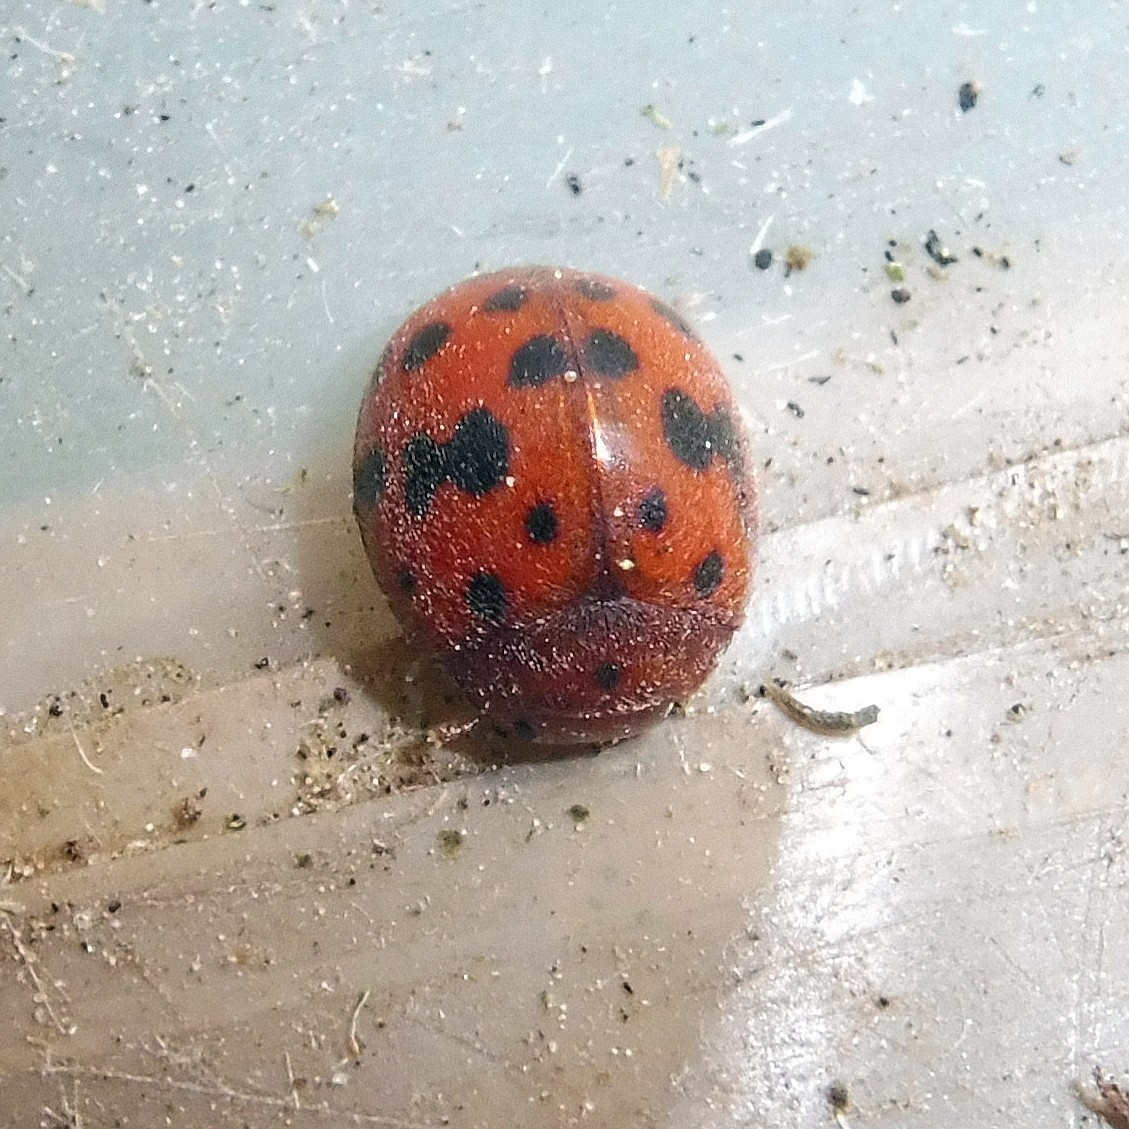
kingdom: Animalia
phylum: Arthropoda
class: Insecta
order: Coleoptera
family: Coccinellidae
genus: Subcoccinella
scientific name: Subcoccinella vigintiquatuorpunctata
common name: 24-spot ladybird
